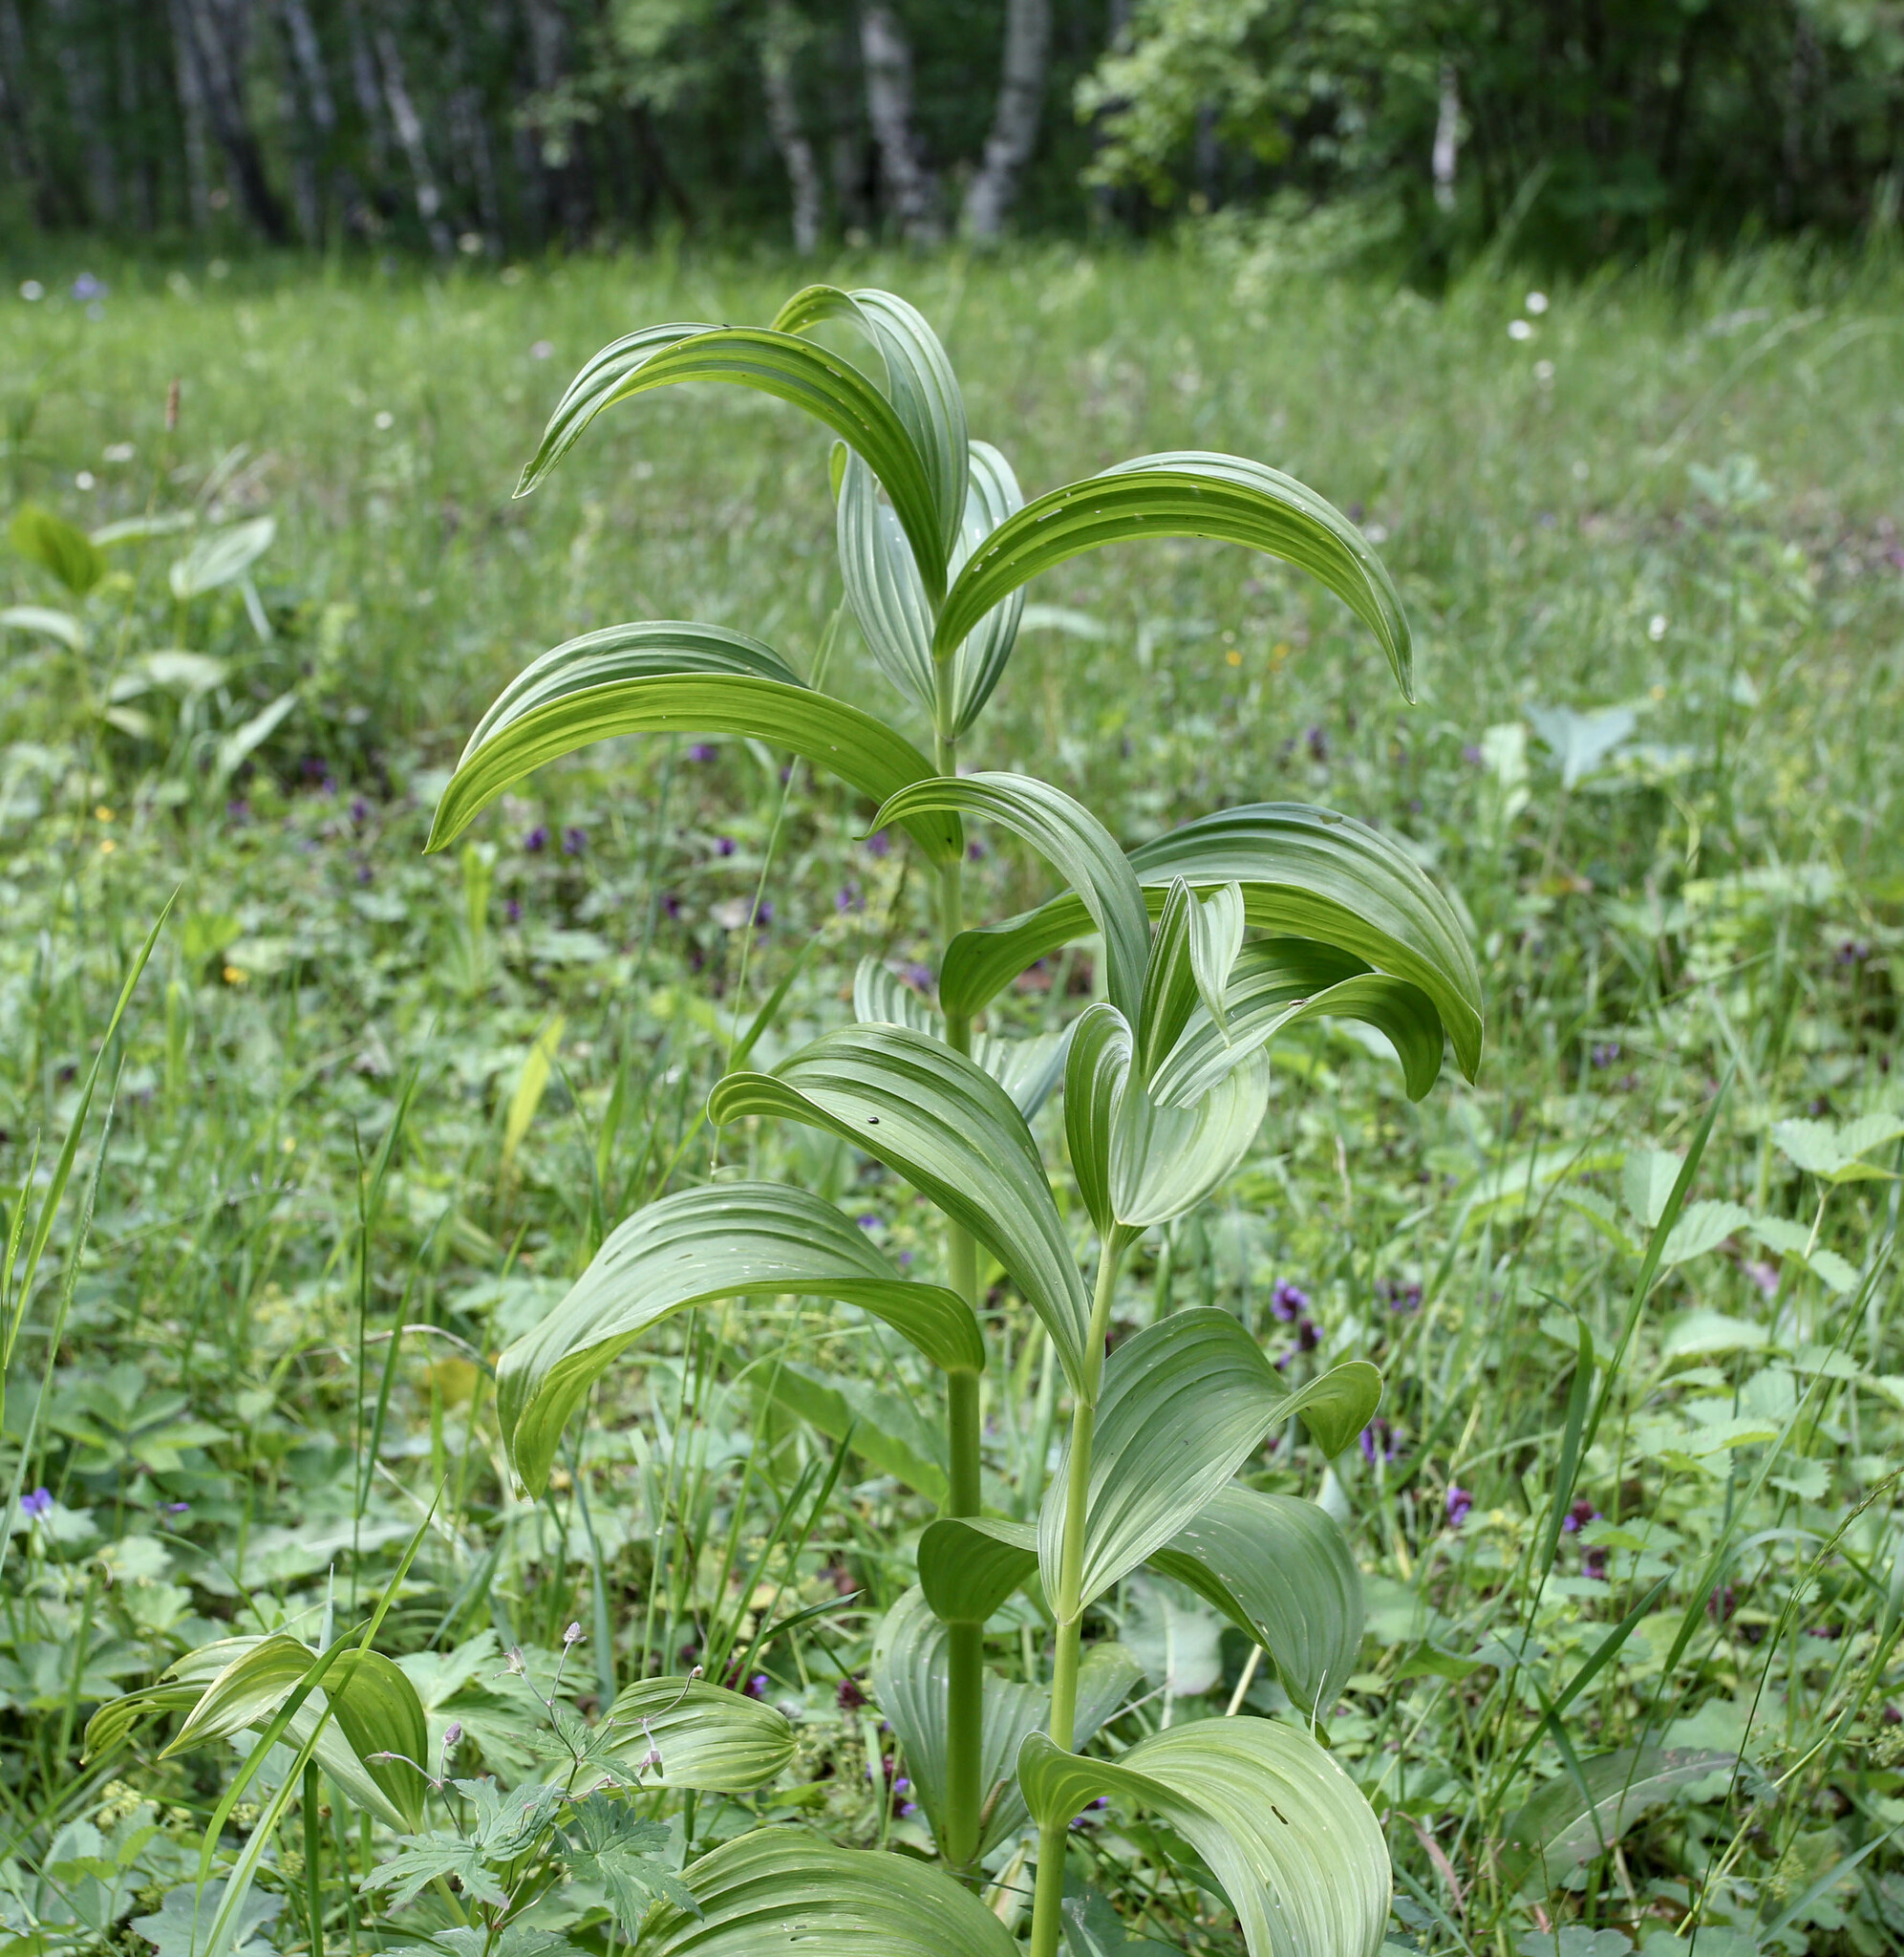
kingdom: Plantae
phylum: Tracheophyta
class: Liliopsida
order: Liliales
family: Melanthiaceae
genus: Veratrum
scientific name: Veratrum lobelianum
